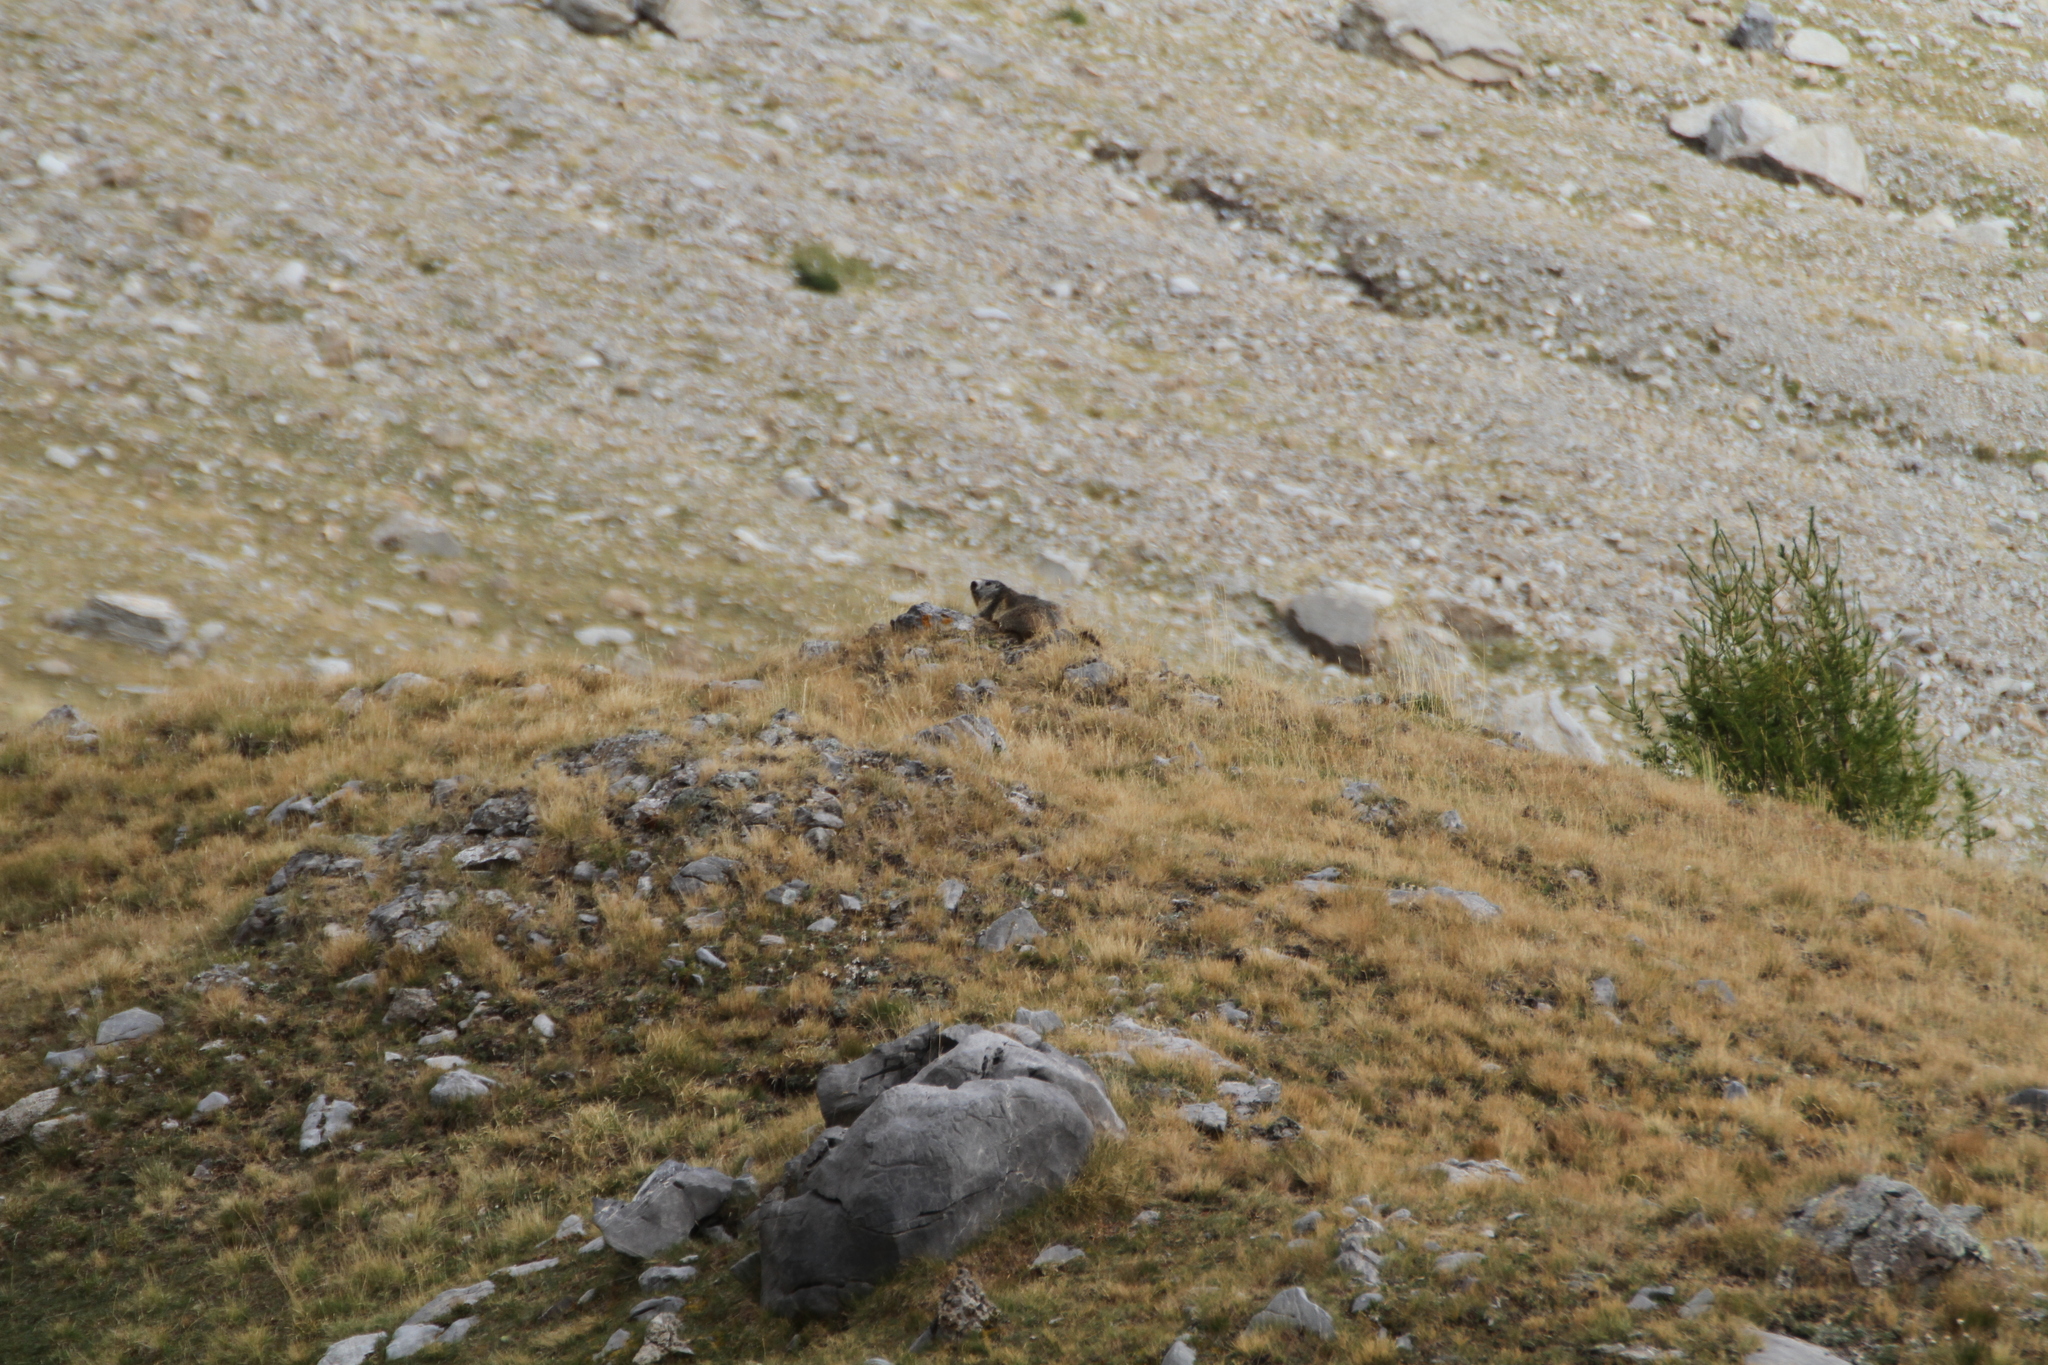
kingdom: Animalia
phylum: Chordata
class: Mammalia
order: Rodentia
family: Sciuridae
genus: Marmota
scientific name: Marmota marmota
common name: Alpine marmot
